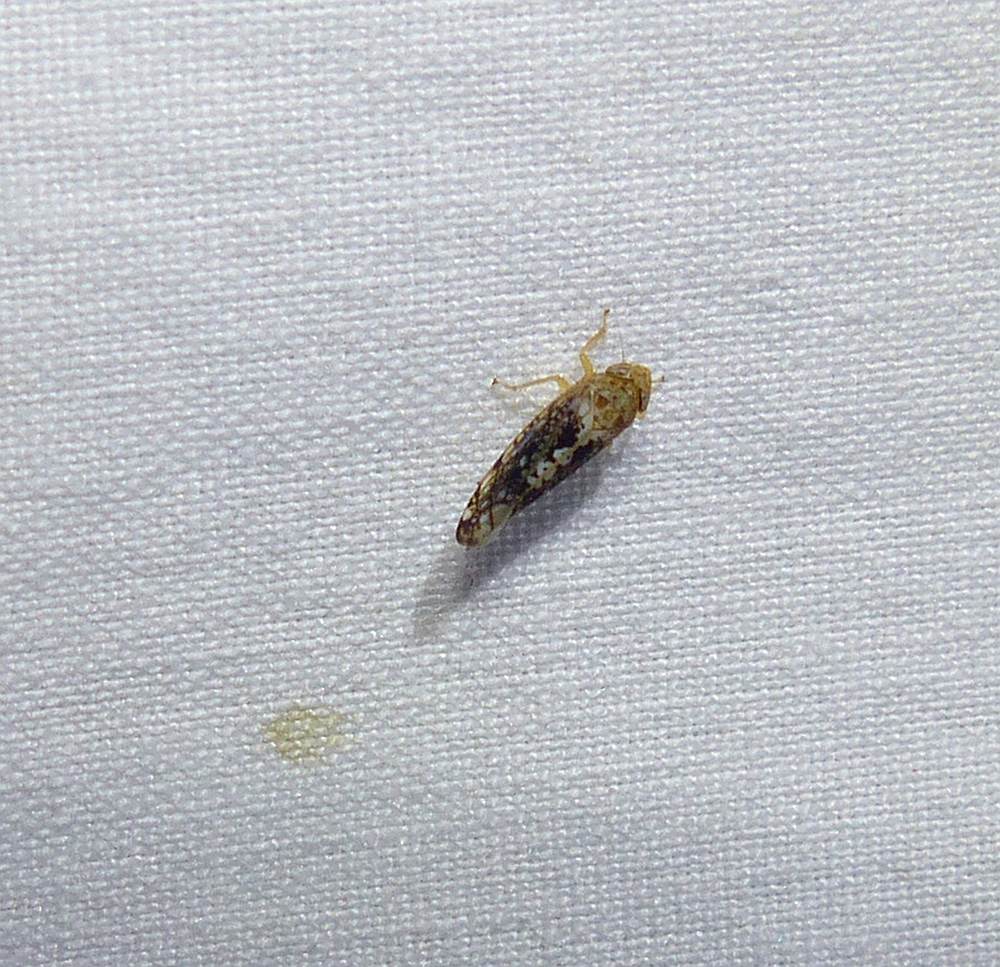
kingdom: Animalia
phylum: Arthropoda
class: Insecta
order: Hemiptera
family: Cicadellidae
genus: Prescottia
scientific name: Prescottia lobata
